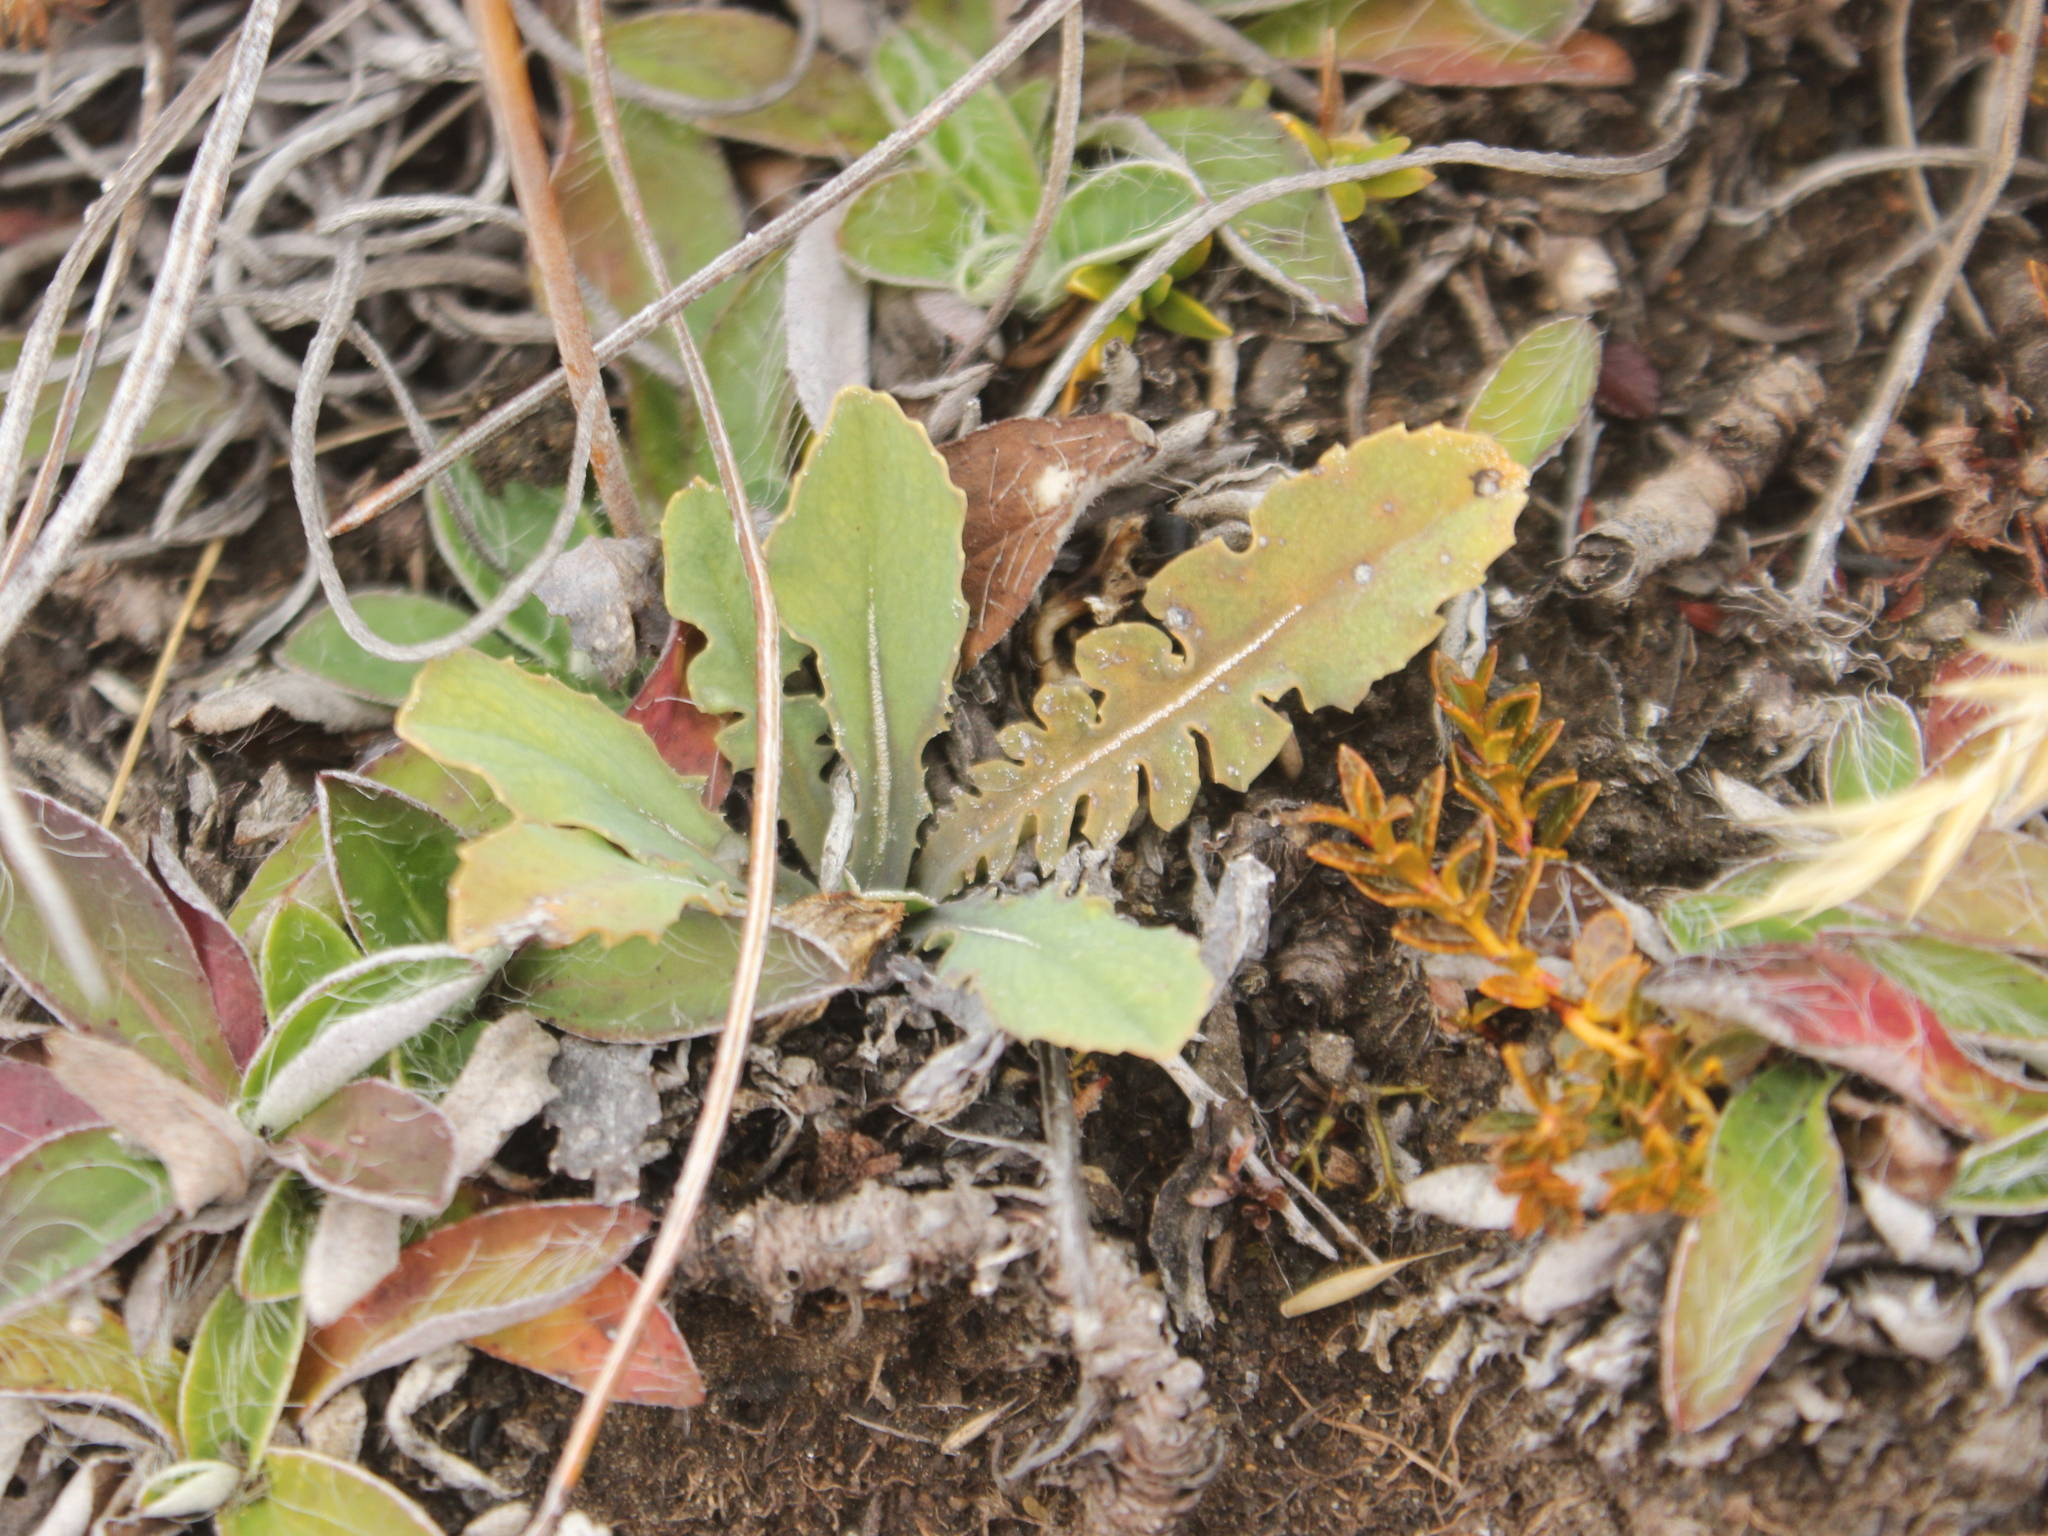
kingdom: Plantae
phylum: Tracheophyta
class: Magnoliopsida
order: Asterales
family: Asteraceae
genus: Sonchus
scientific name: Sonchus novae-zelandiae
